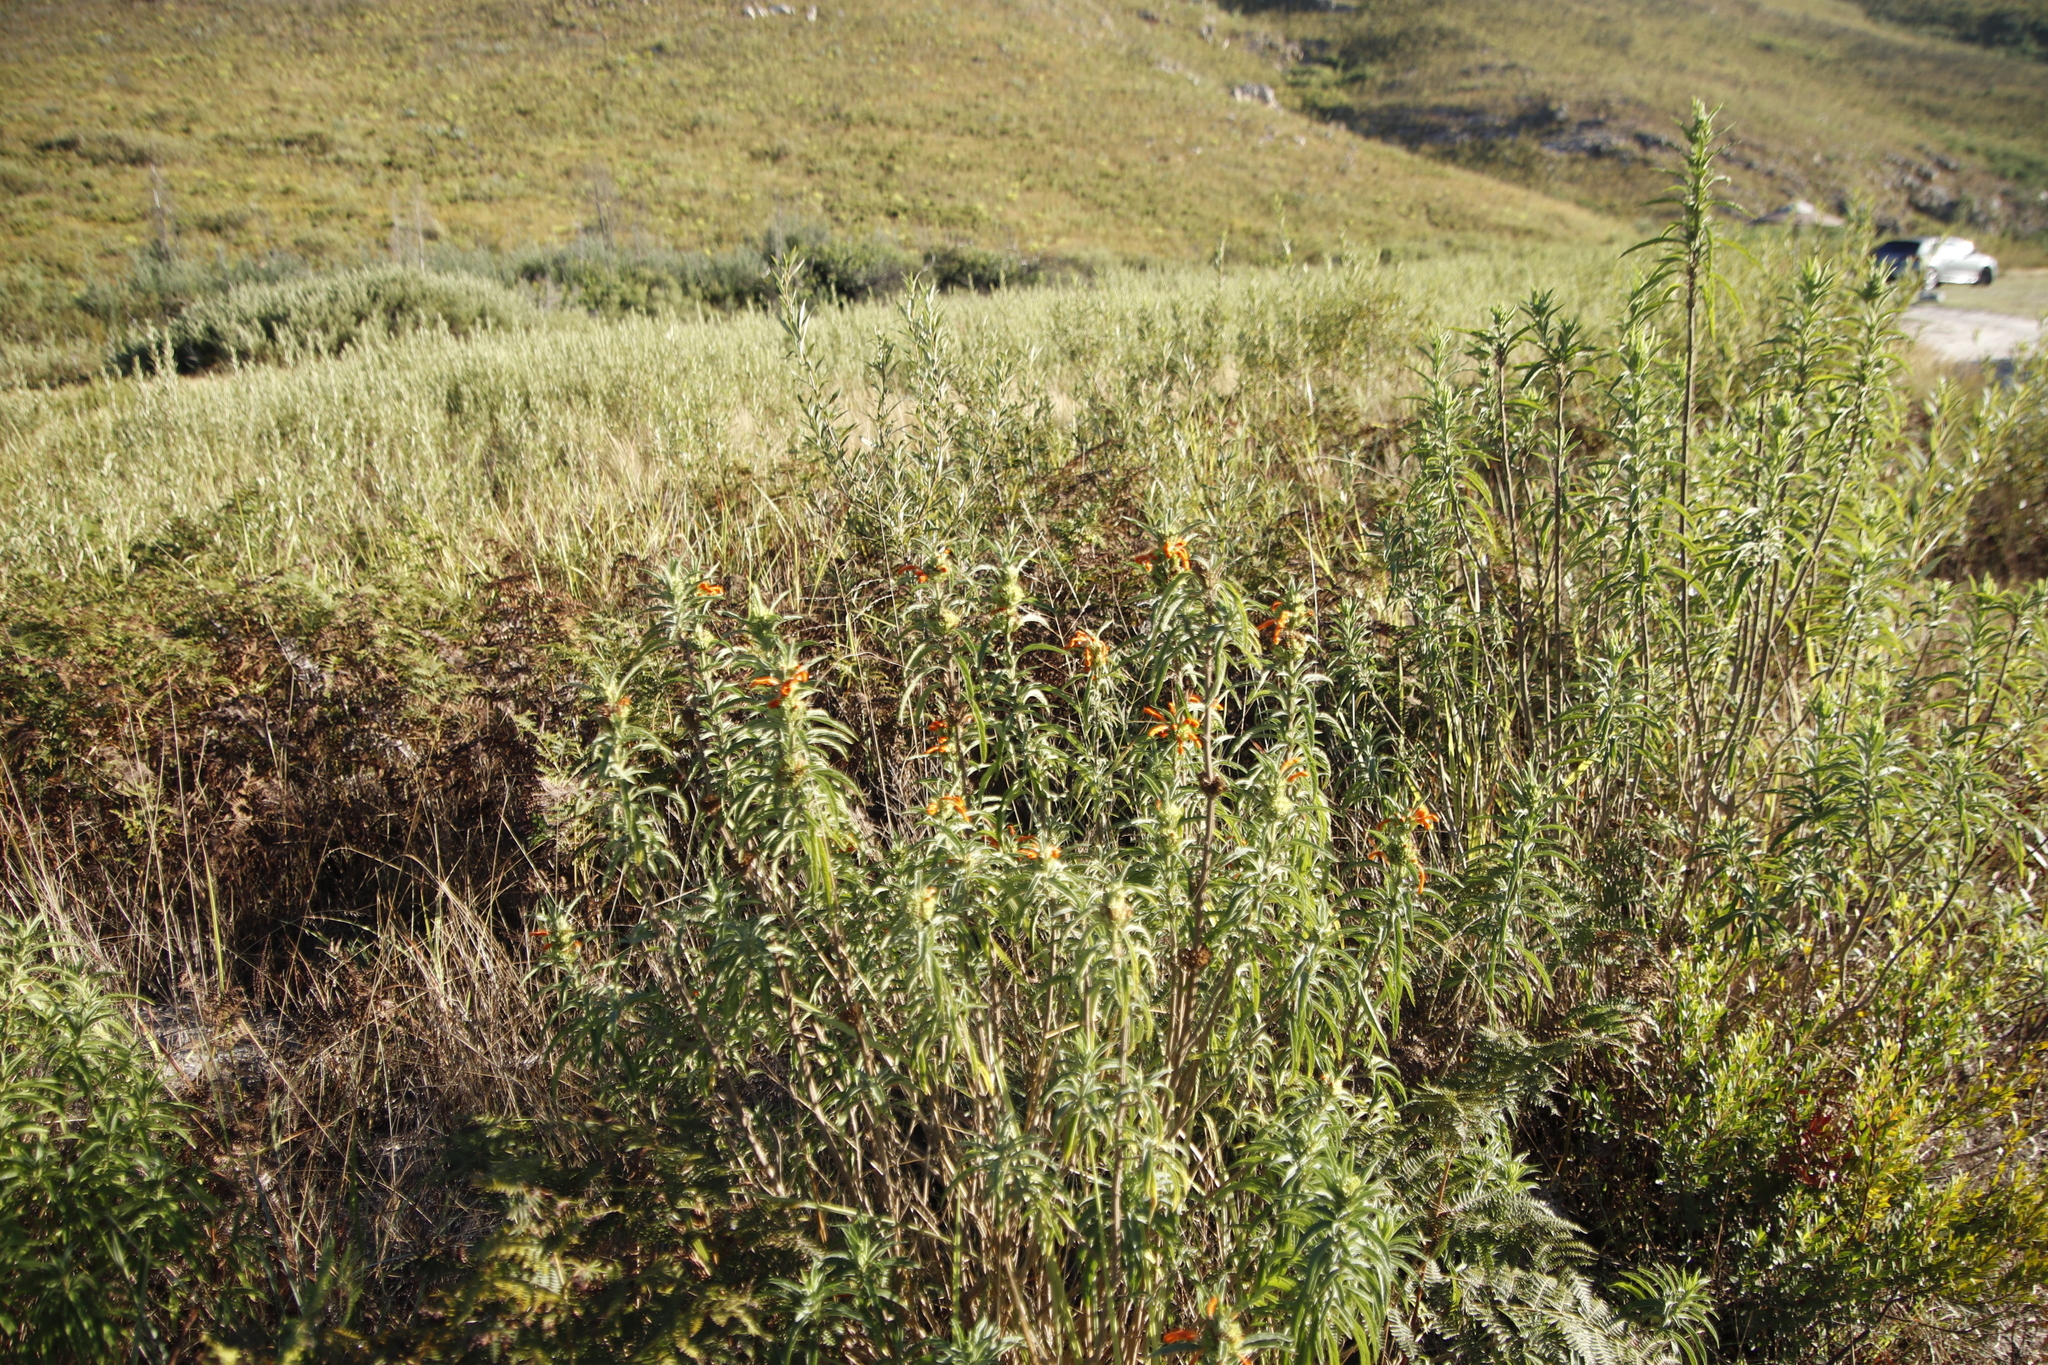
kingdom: Plantae
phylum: Tracheophyta
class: Magnoliopsida
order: Lamiales
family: Lamiaceae
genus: Leonotis
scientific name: Leonotis leonurus
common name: Lion's ear
